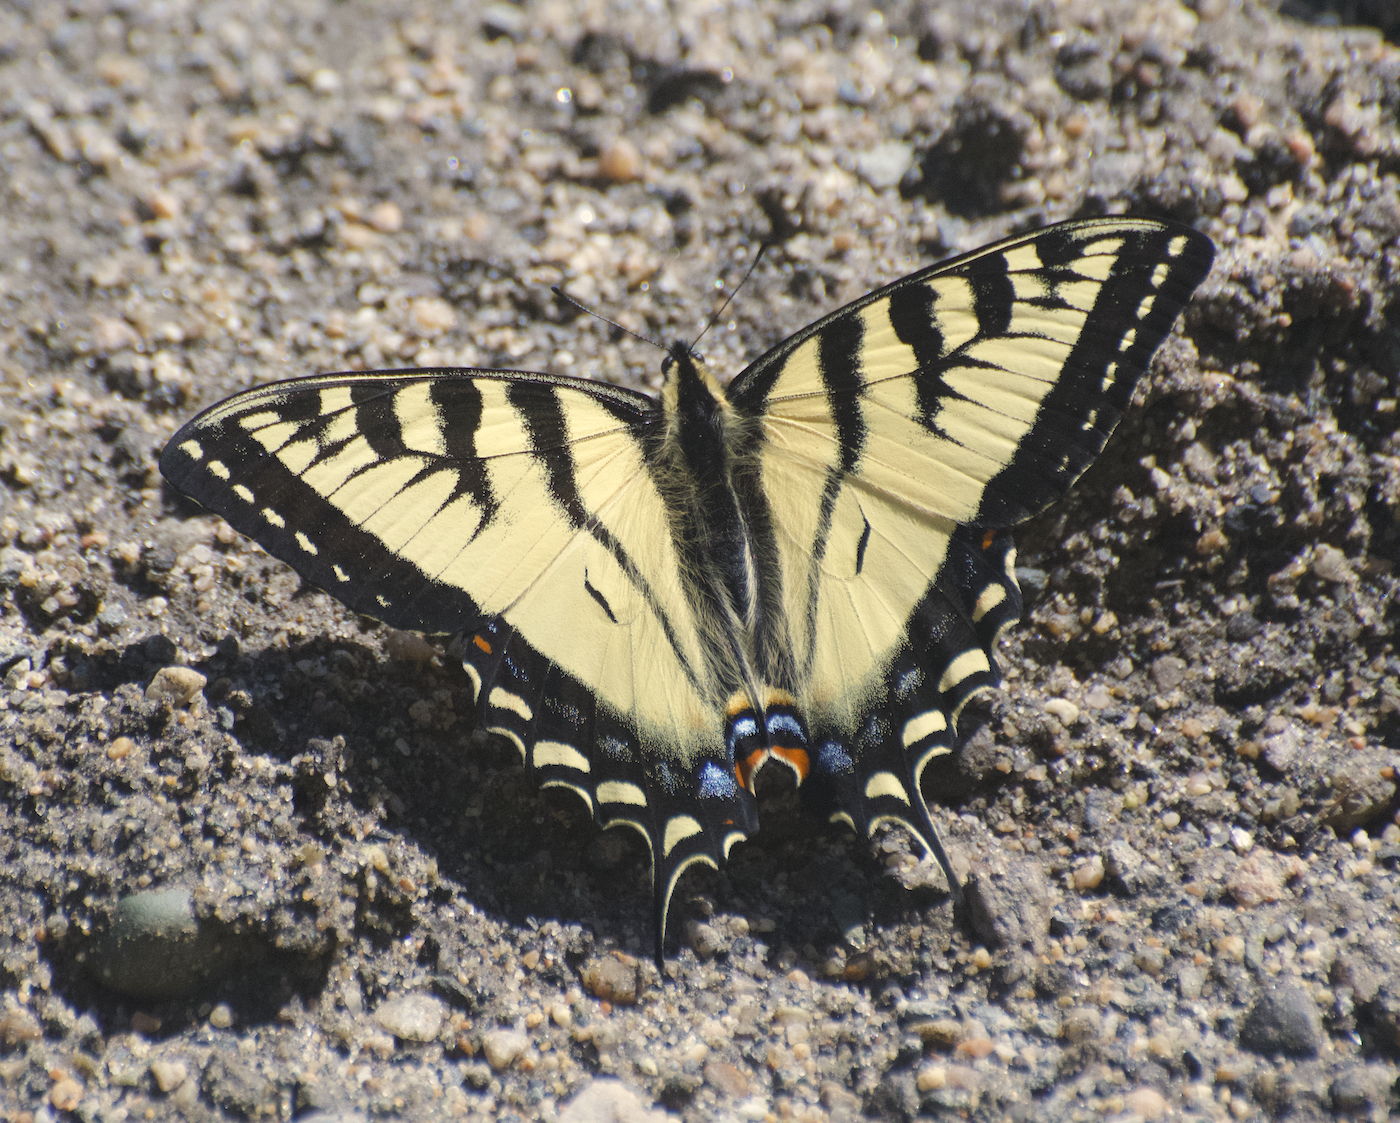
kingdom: Animalia
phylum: Arthropoda
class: Insecta
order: Lepidoptera
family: Papilionidae
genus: Papilio
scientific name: Papilio canadensis
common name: Canadian tiger swallowtail
